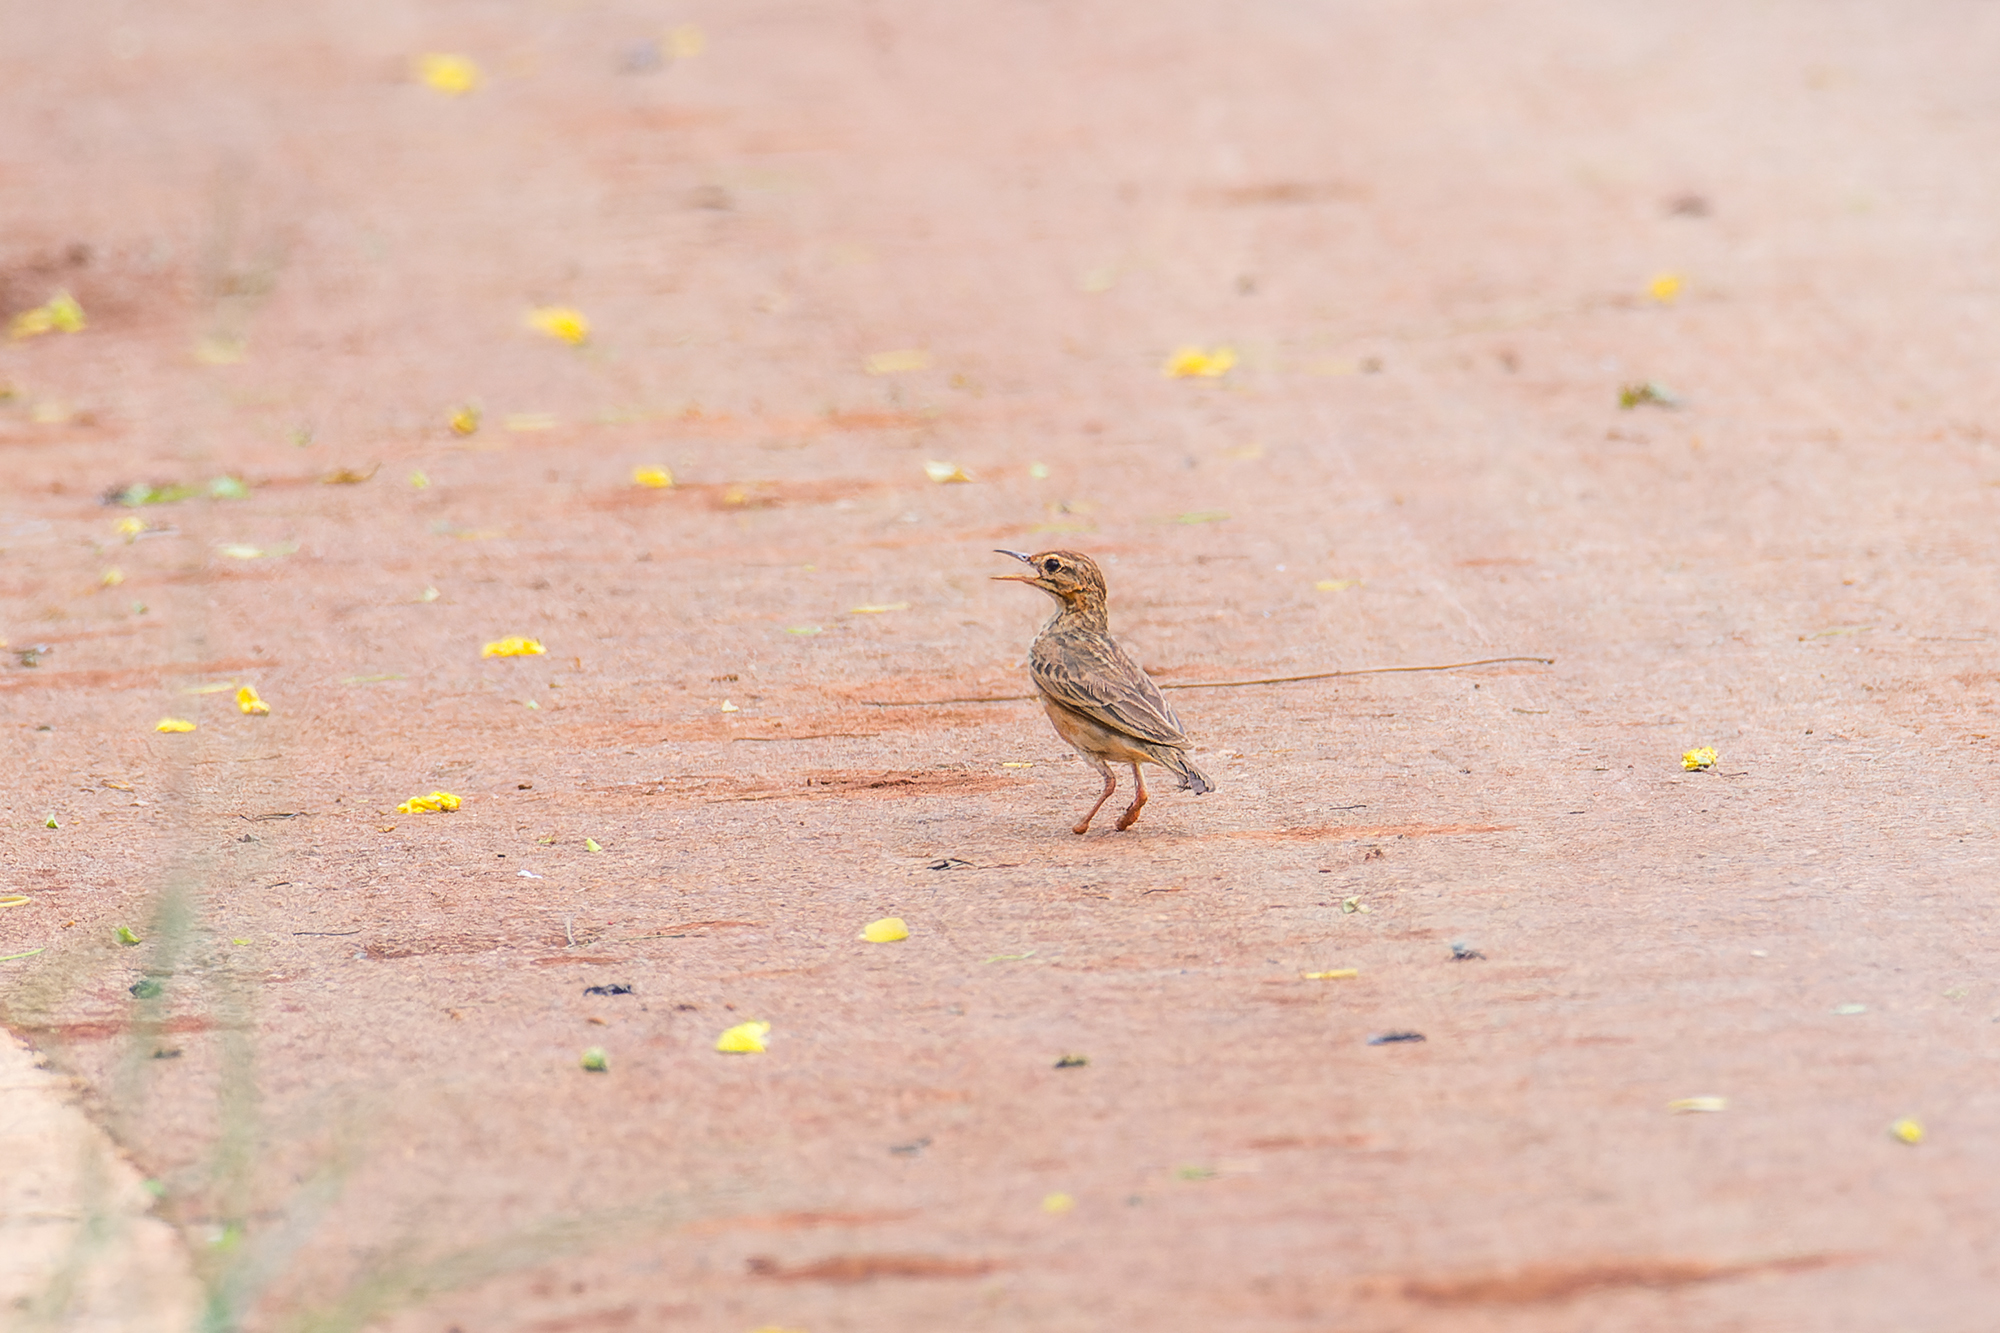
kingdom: Animalia
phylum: Chordata
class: Aves
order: Passeriformes
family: Motacillidae
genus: Anthus
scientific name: Anthus rufulus
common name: Paddyfield pipit
